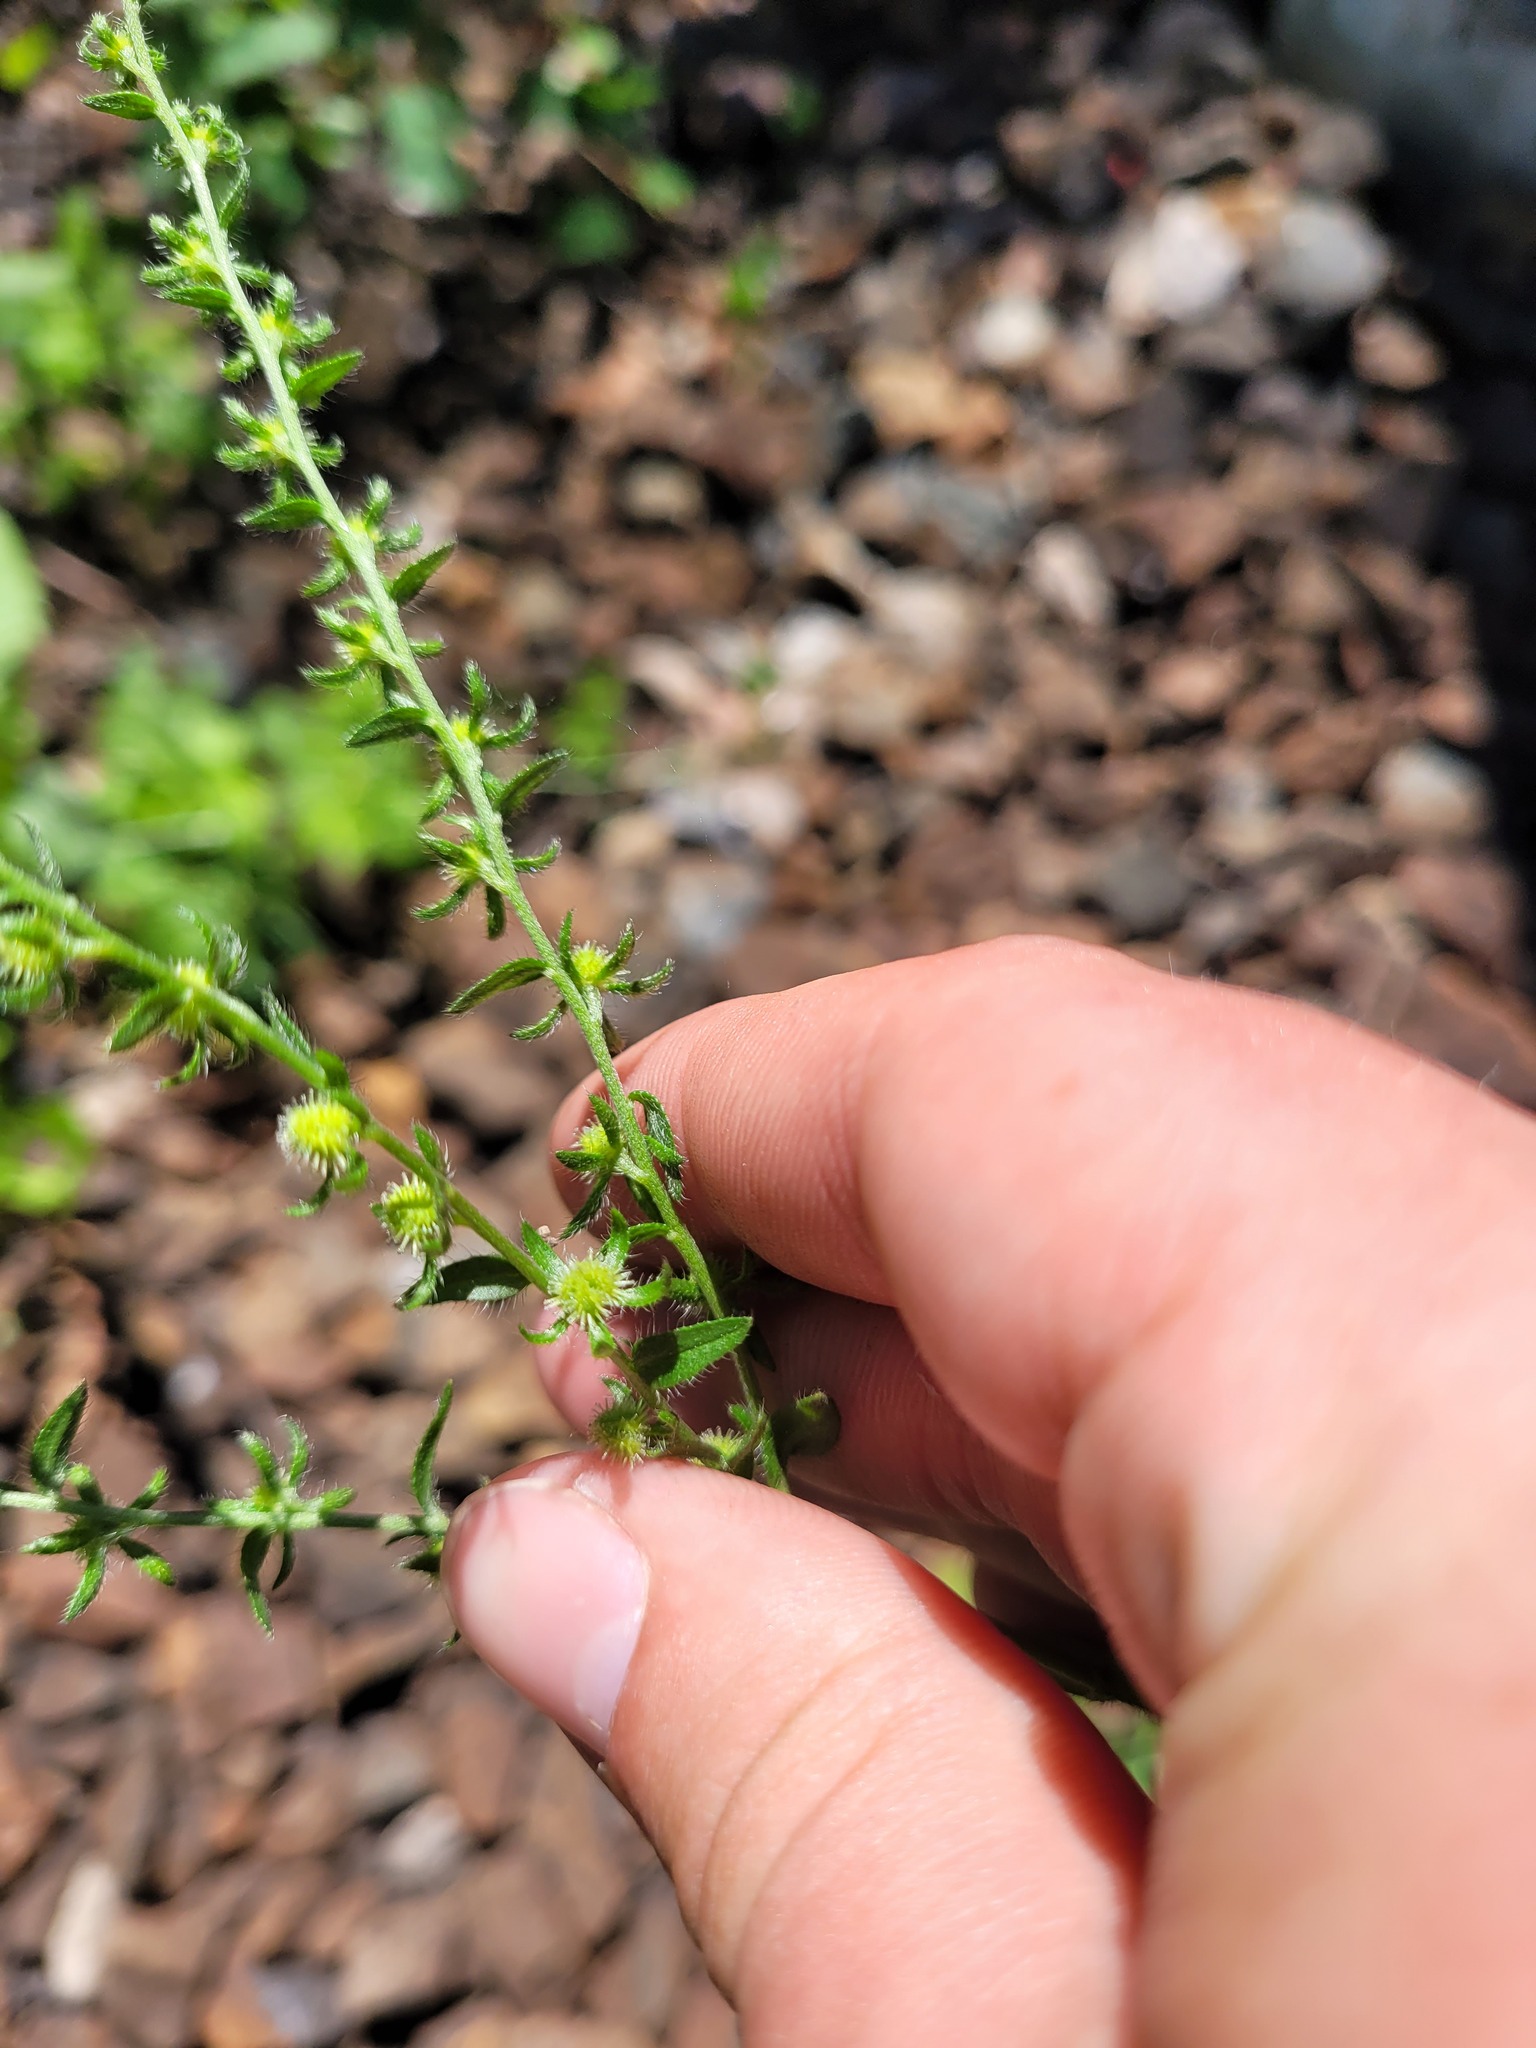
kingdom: Plantae
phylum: Tracheophyta
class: Magnoliopsida
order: Boraginales
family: Boraginaceae
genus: Lappula
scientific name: Lappula squarrosa
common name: European stickseed
